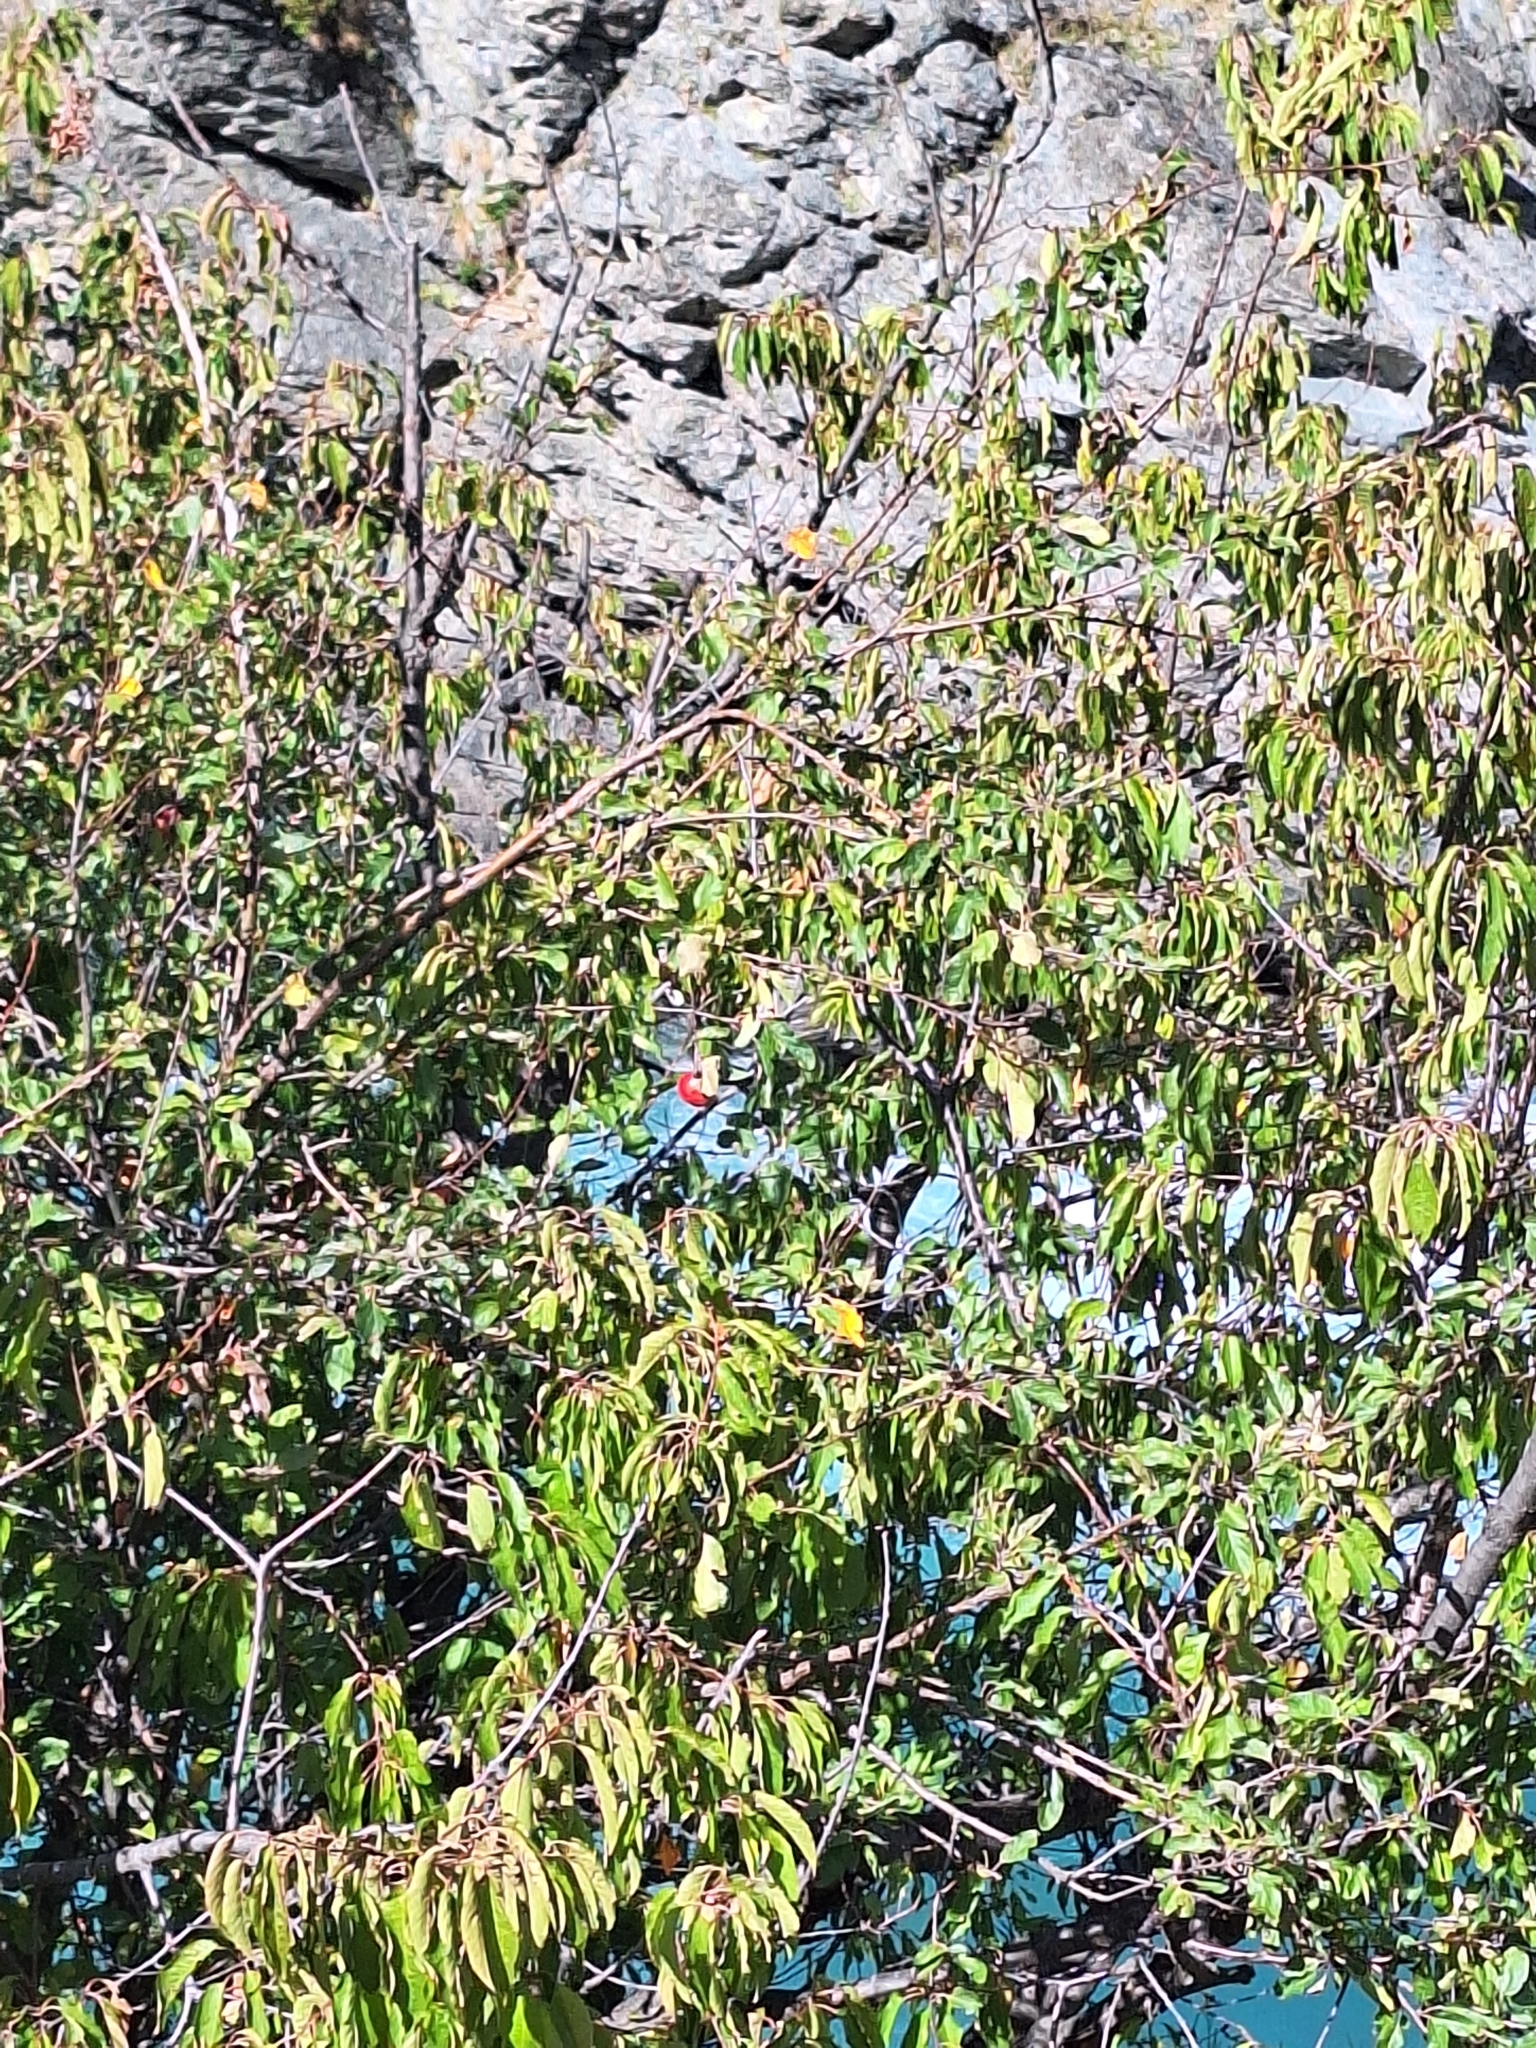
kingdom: Plantae
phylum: Tracheophyta
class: Magnoliopsida
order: Rosales
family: Rosaceae
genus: Malus
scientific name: Malus domestica
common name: Apple
